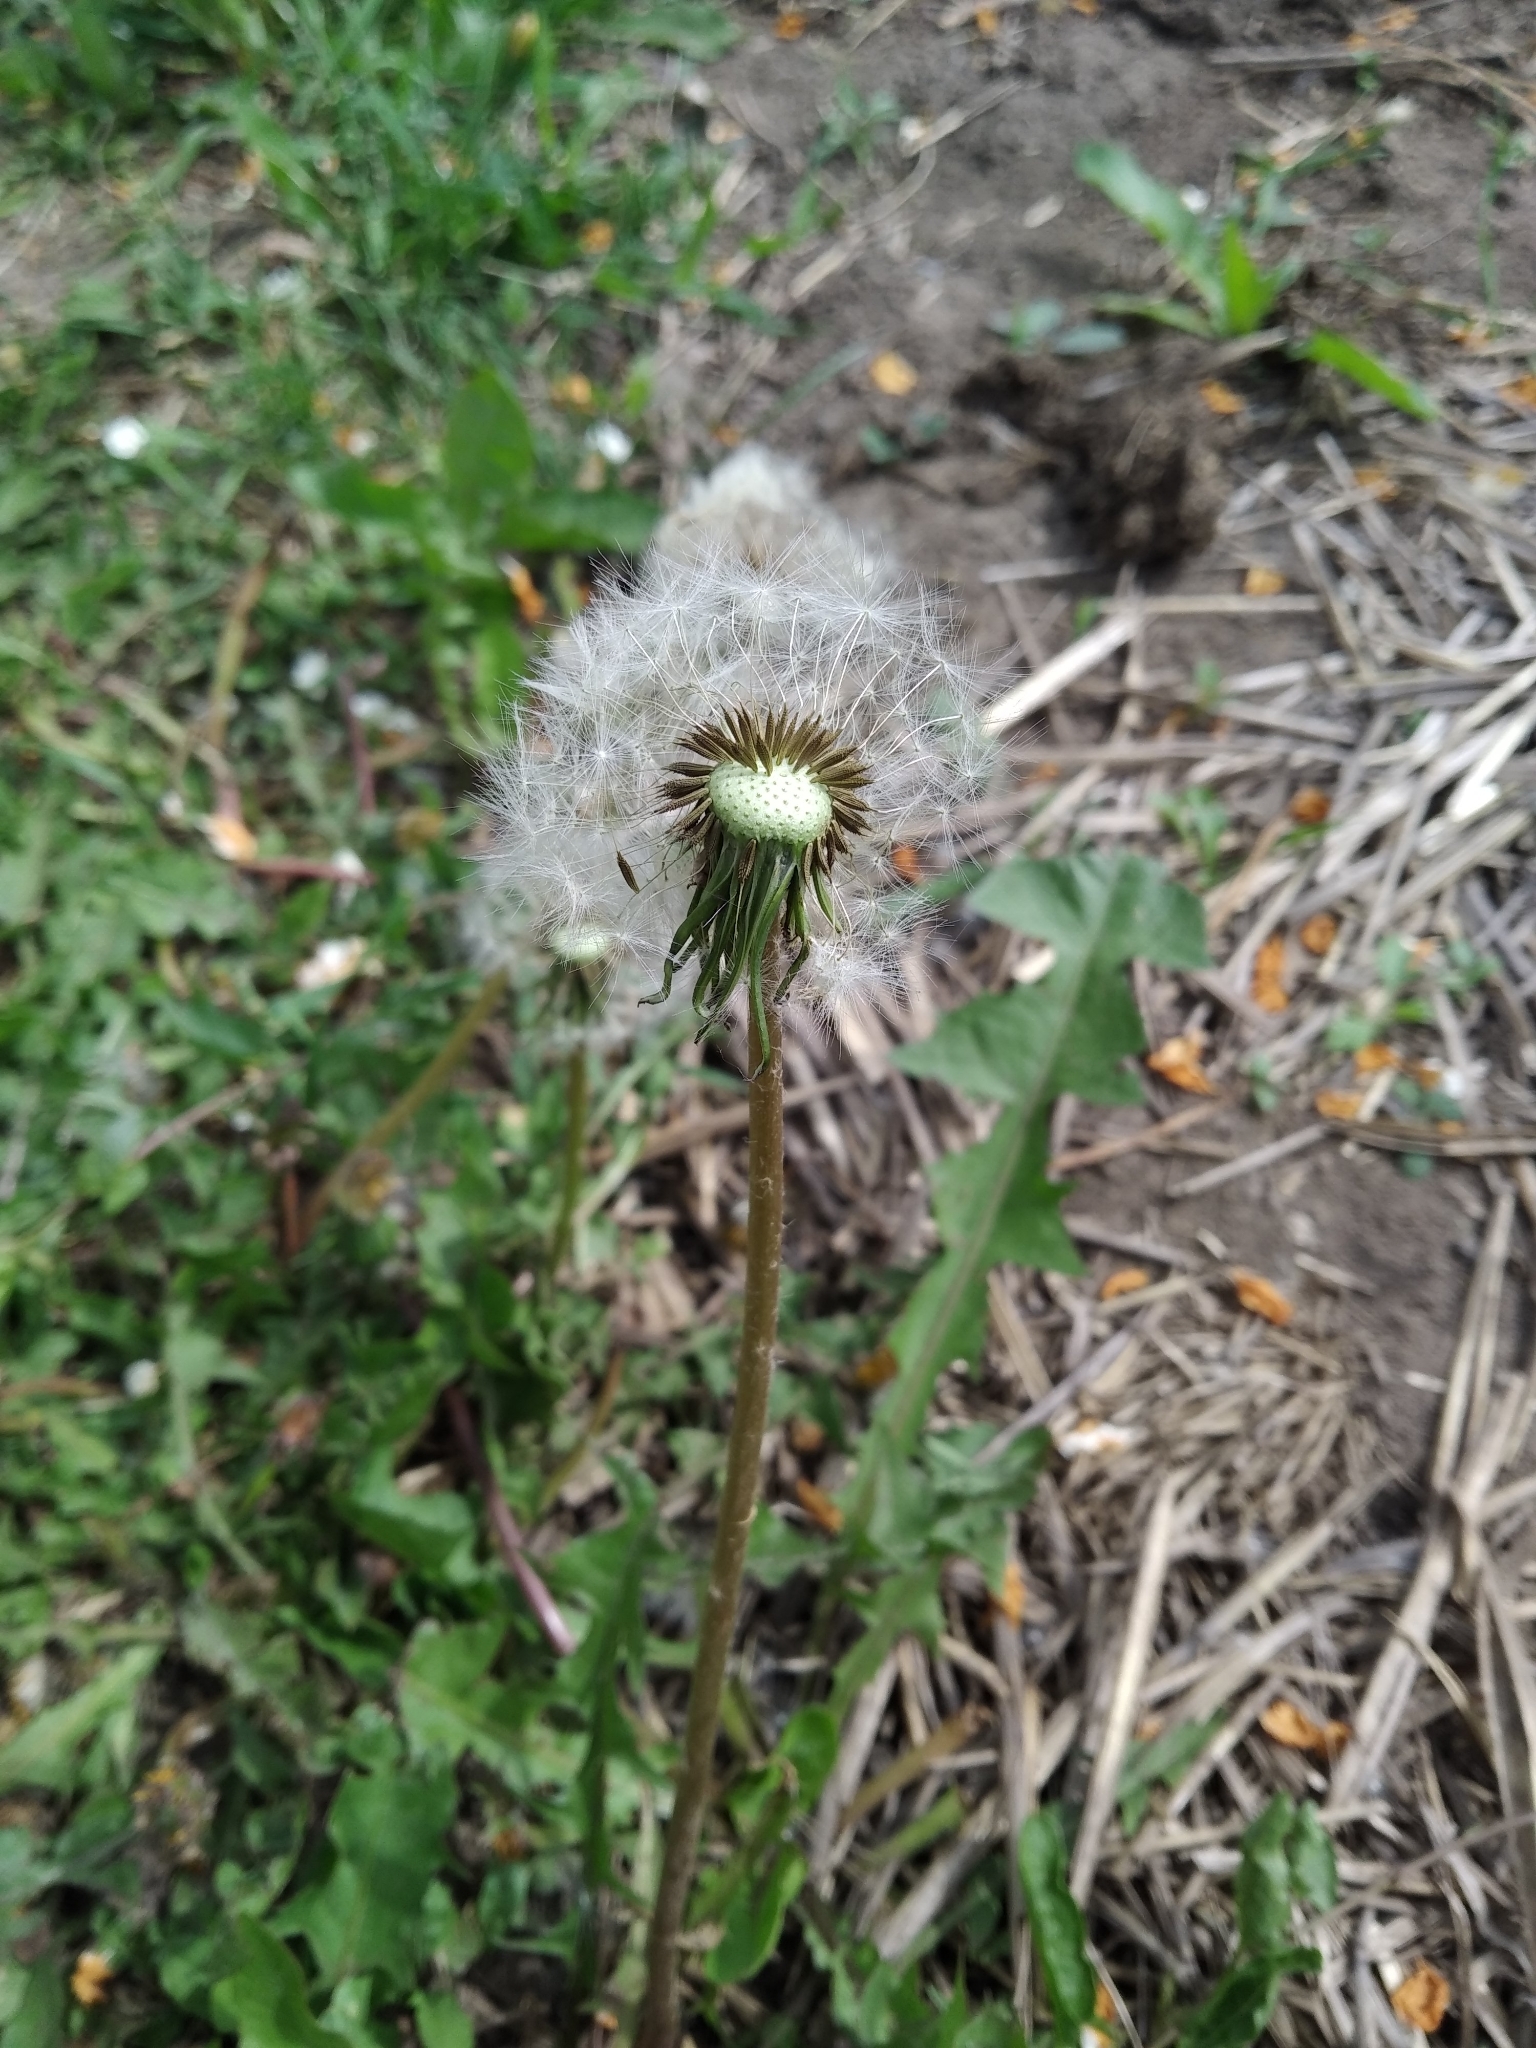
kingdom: Plantae
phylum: Tracheophyta
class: Magnoliopsida
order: Asterales
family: Asteraceae
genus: Taraxacum
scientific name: Taraxacum officinale
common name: Common dandelion
